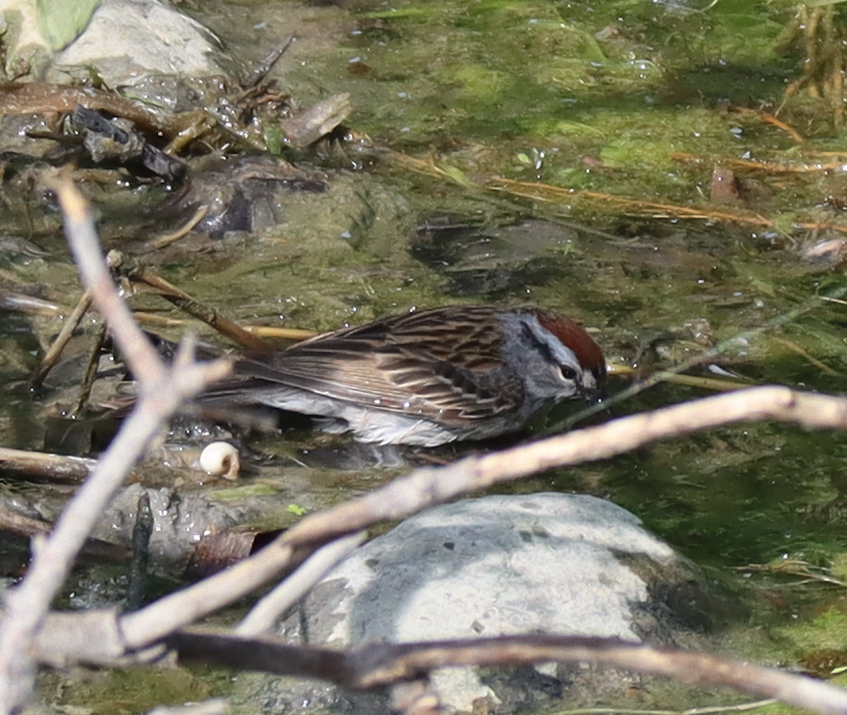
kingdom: Animalia
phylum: Chordata
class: Aves
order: Passeriformes
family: Passerellidae
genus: Spizella
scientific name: Spizella passerina
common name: Chipping sparrow
